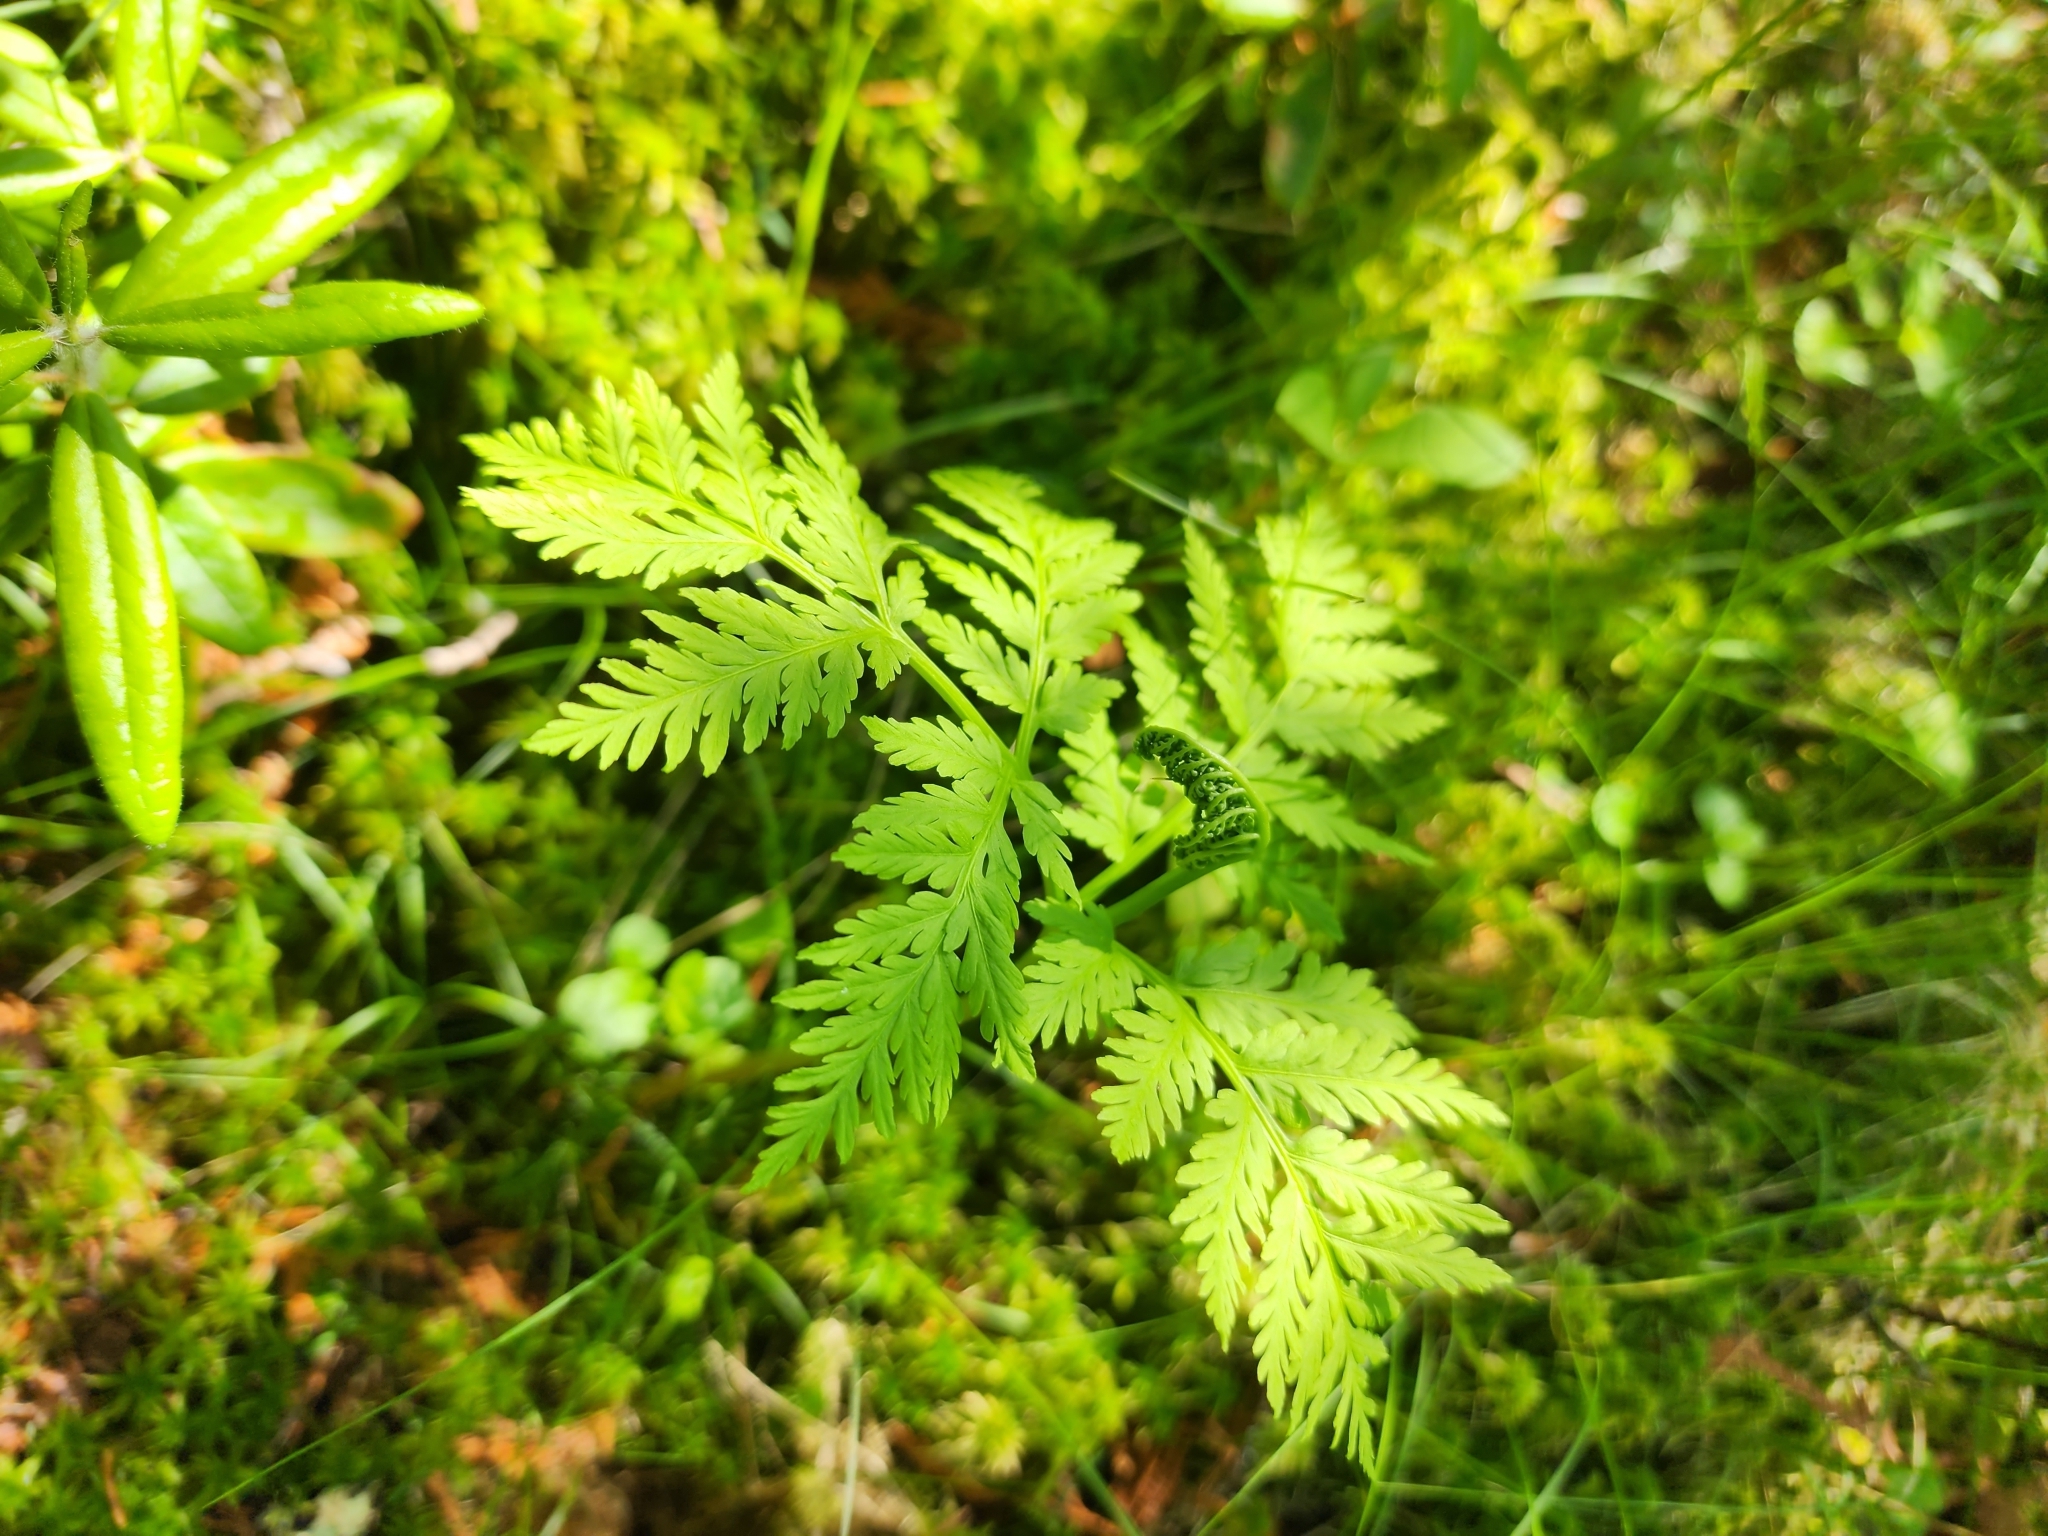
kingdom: Plantae
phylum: Tracheophyta
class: Polypodiopsida
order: Ophioglossales
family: Ophioglossaceae
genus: Botrypus
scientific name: Botrypus virginianus
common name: Common grapefern
